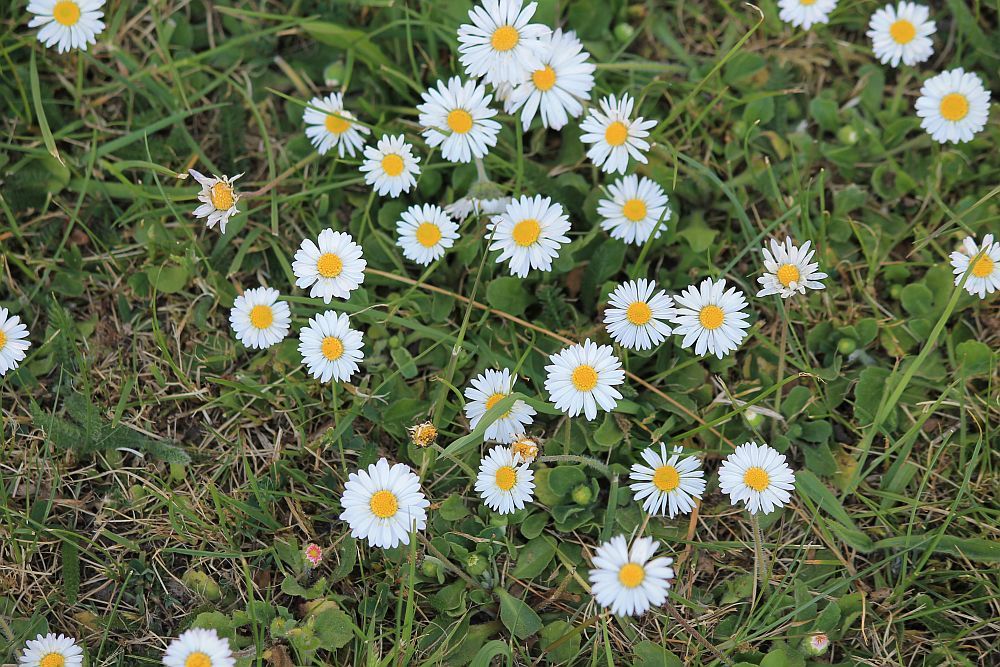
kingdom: Plantae
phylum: Tracheophyta
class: Magnoliopsida
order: Asterales
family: Asteraceae
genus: Bellis
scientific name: Bellis perennis
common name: Lawndaisy
